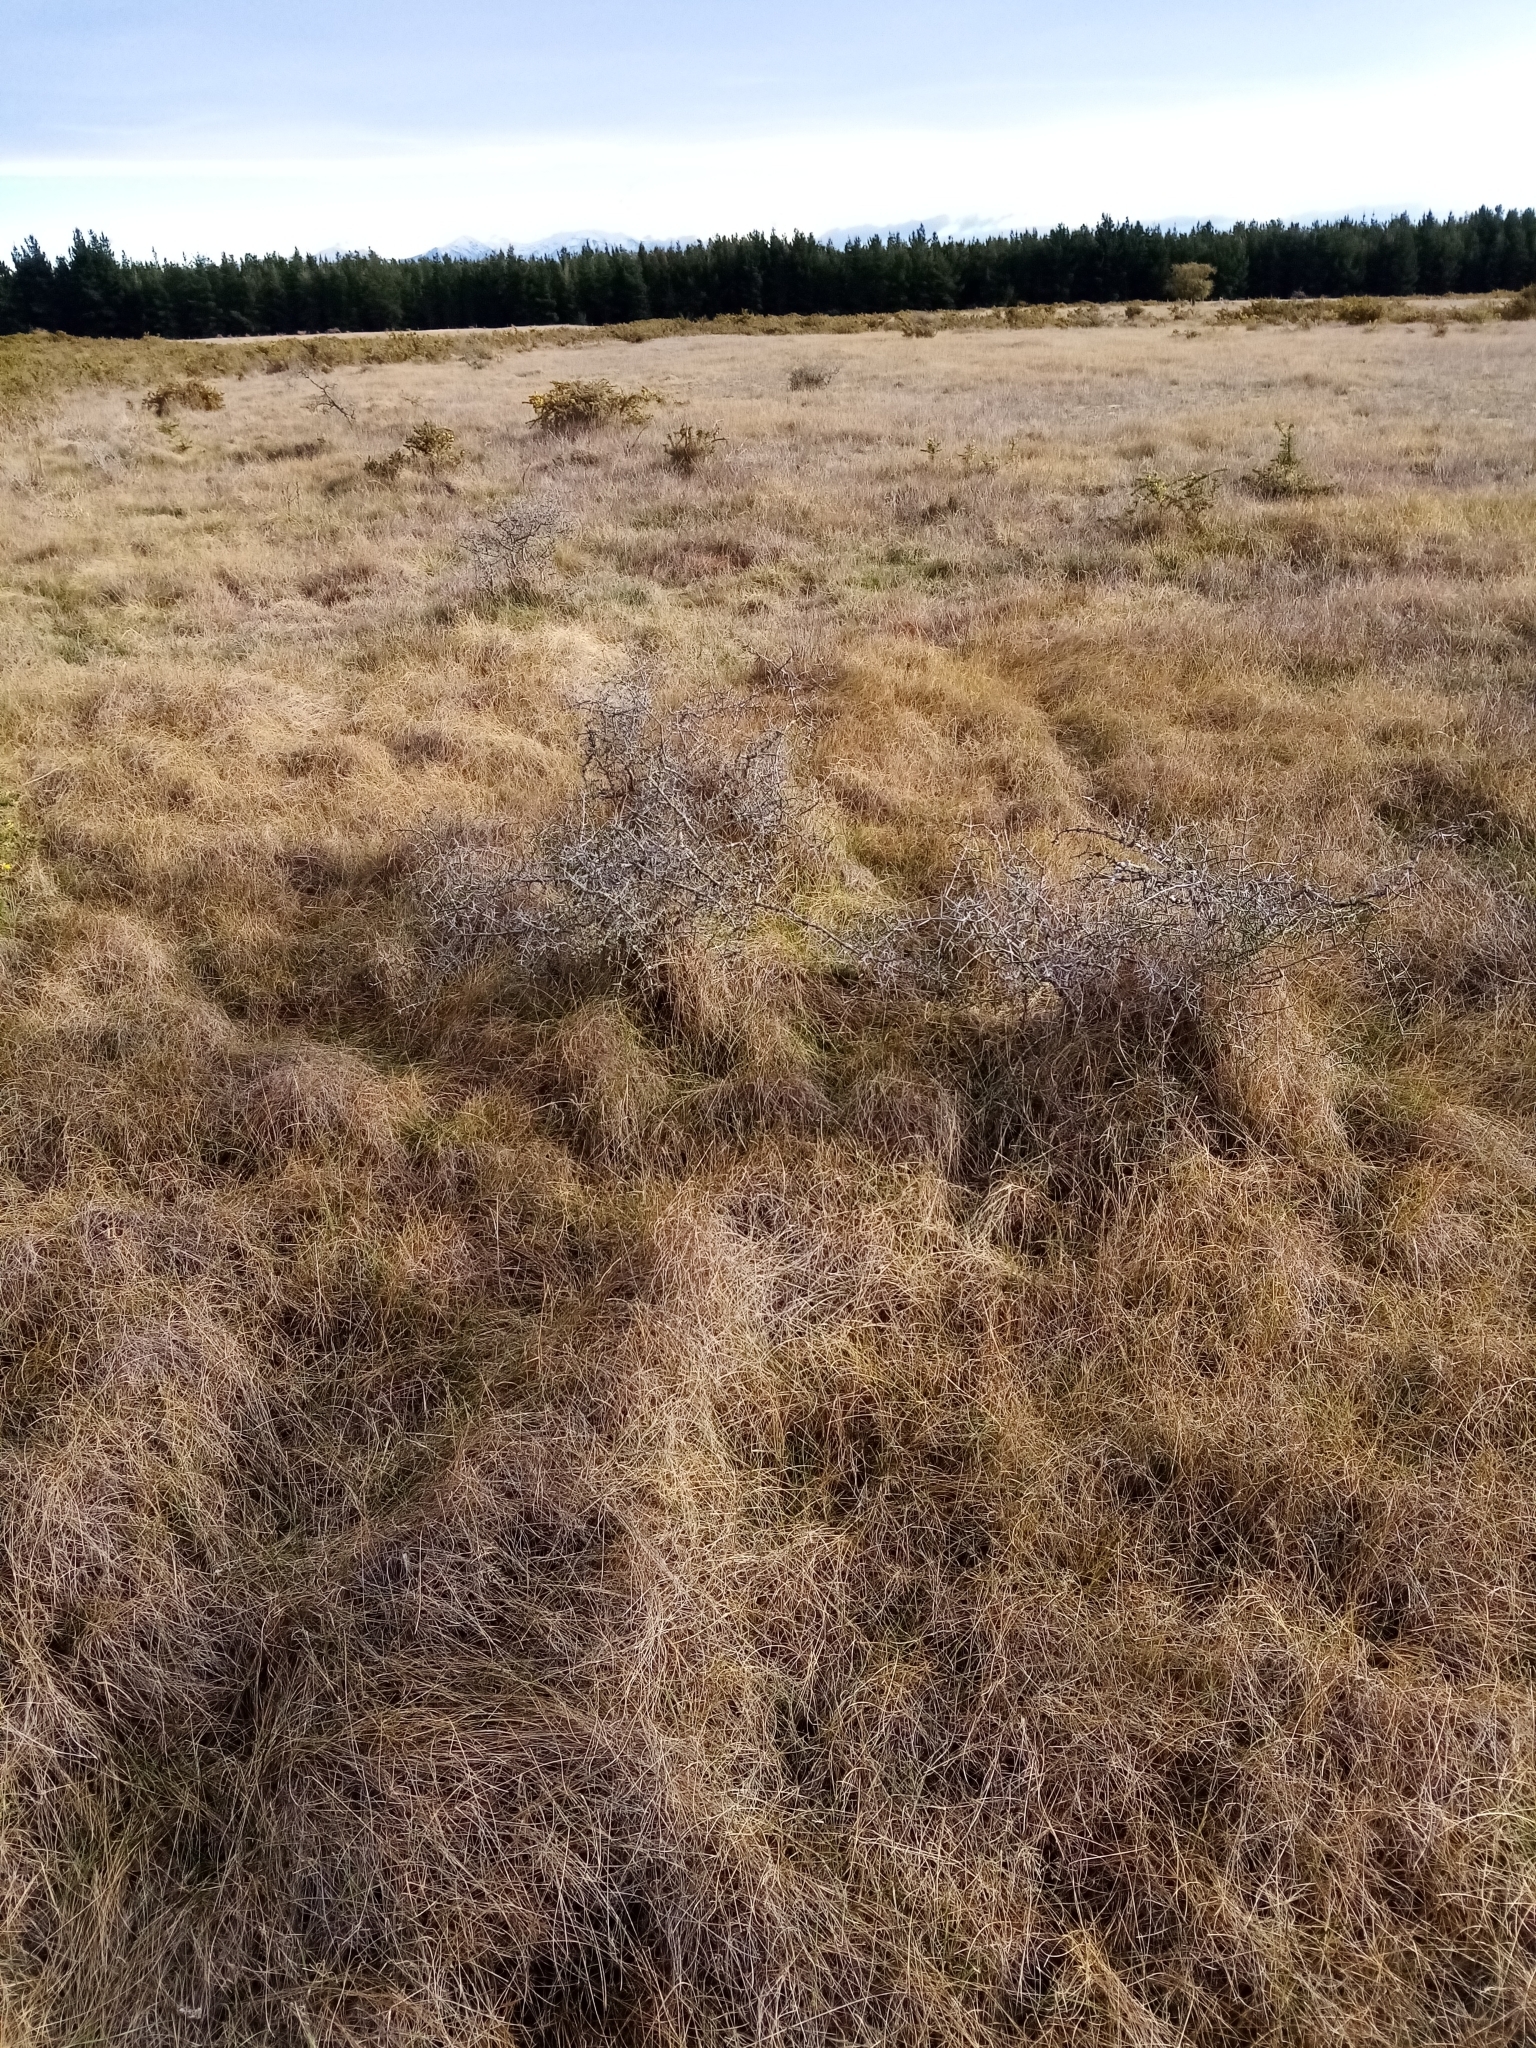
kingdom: Plantae
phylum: Tracheophyta
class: Magnoliopsida
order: Rosales
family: Rhamnaceae
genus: Discaria
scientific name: Discaria toumatou
